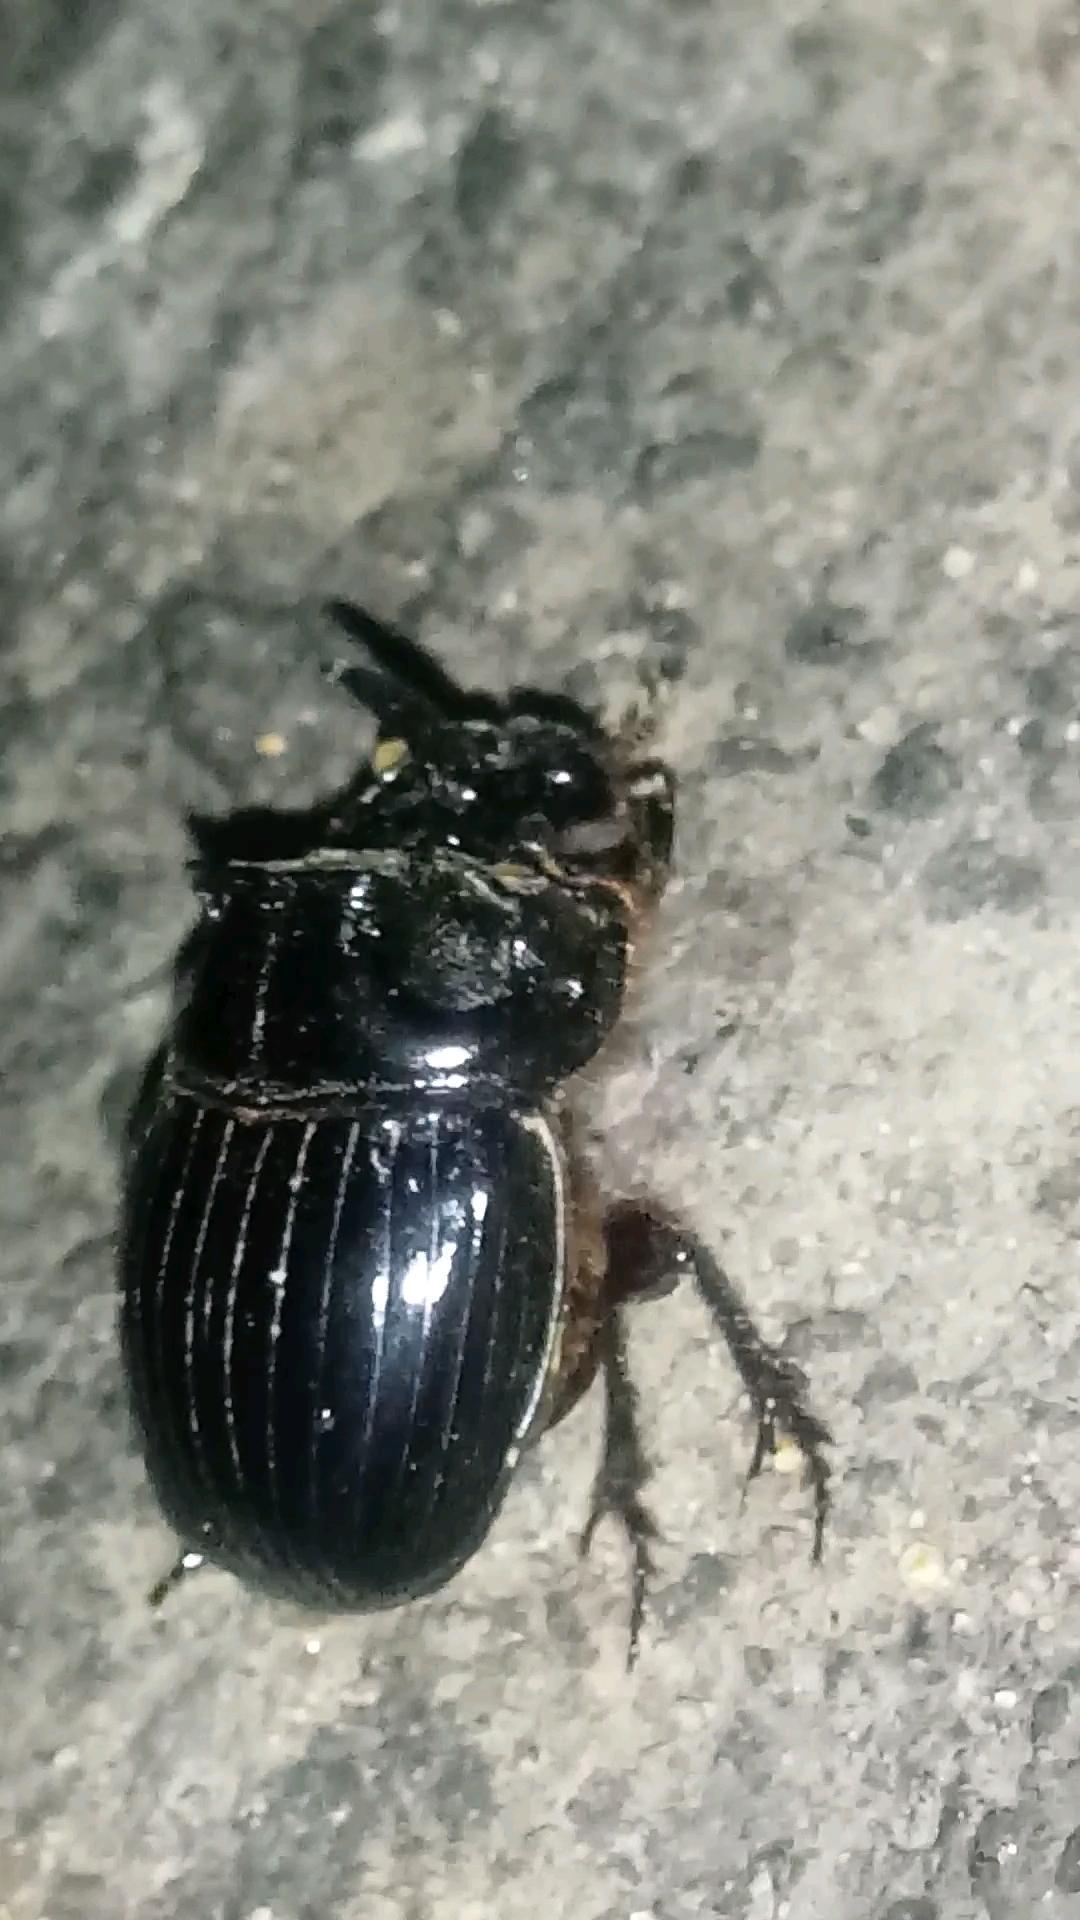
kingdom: Animalia
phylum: Arthropoda
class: Insecta
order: Coleoptera
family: Scarabaeidae
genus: Copris
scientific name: Copris lunaris
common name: Horned dung beetle
